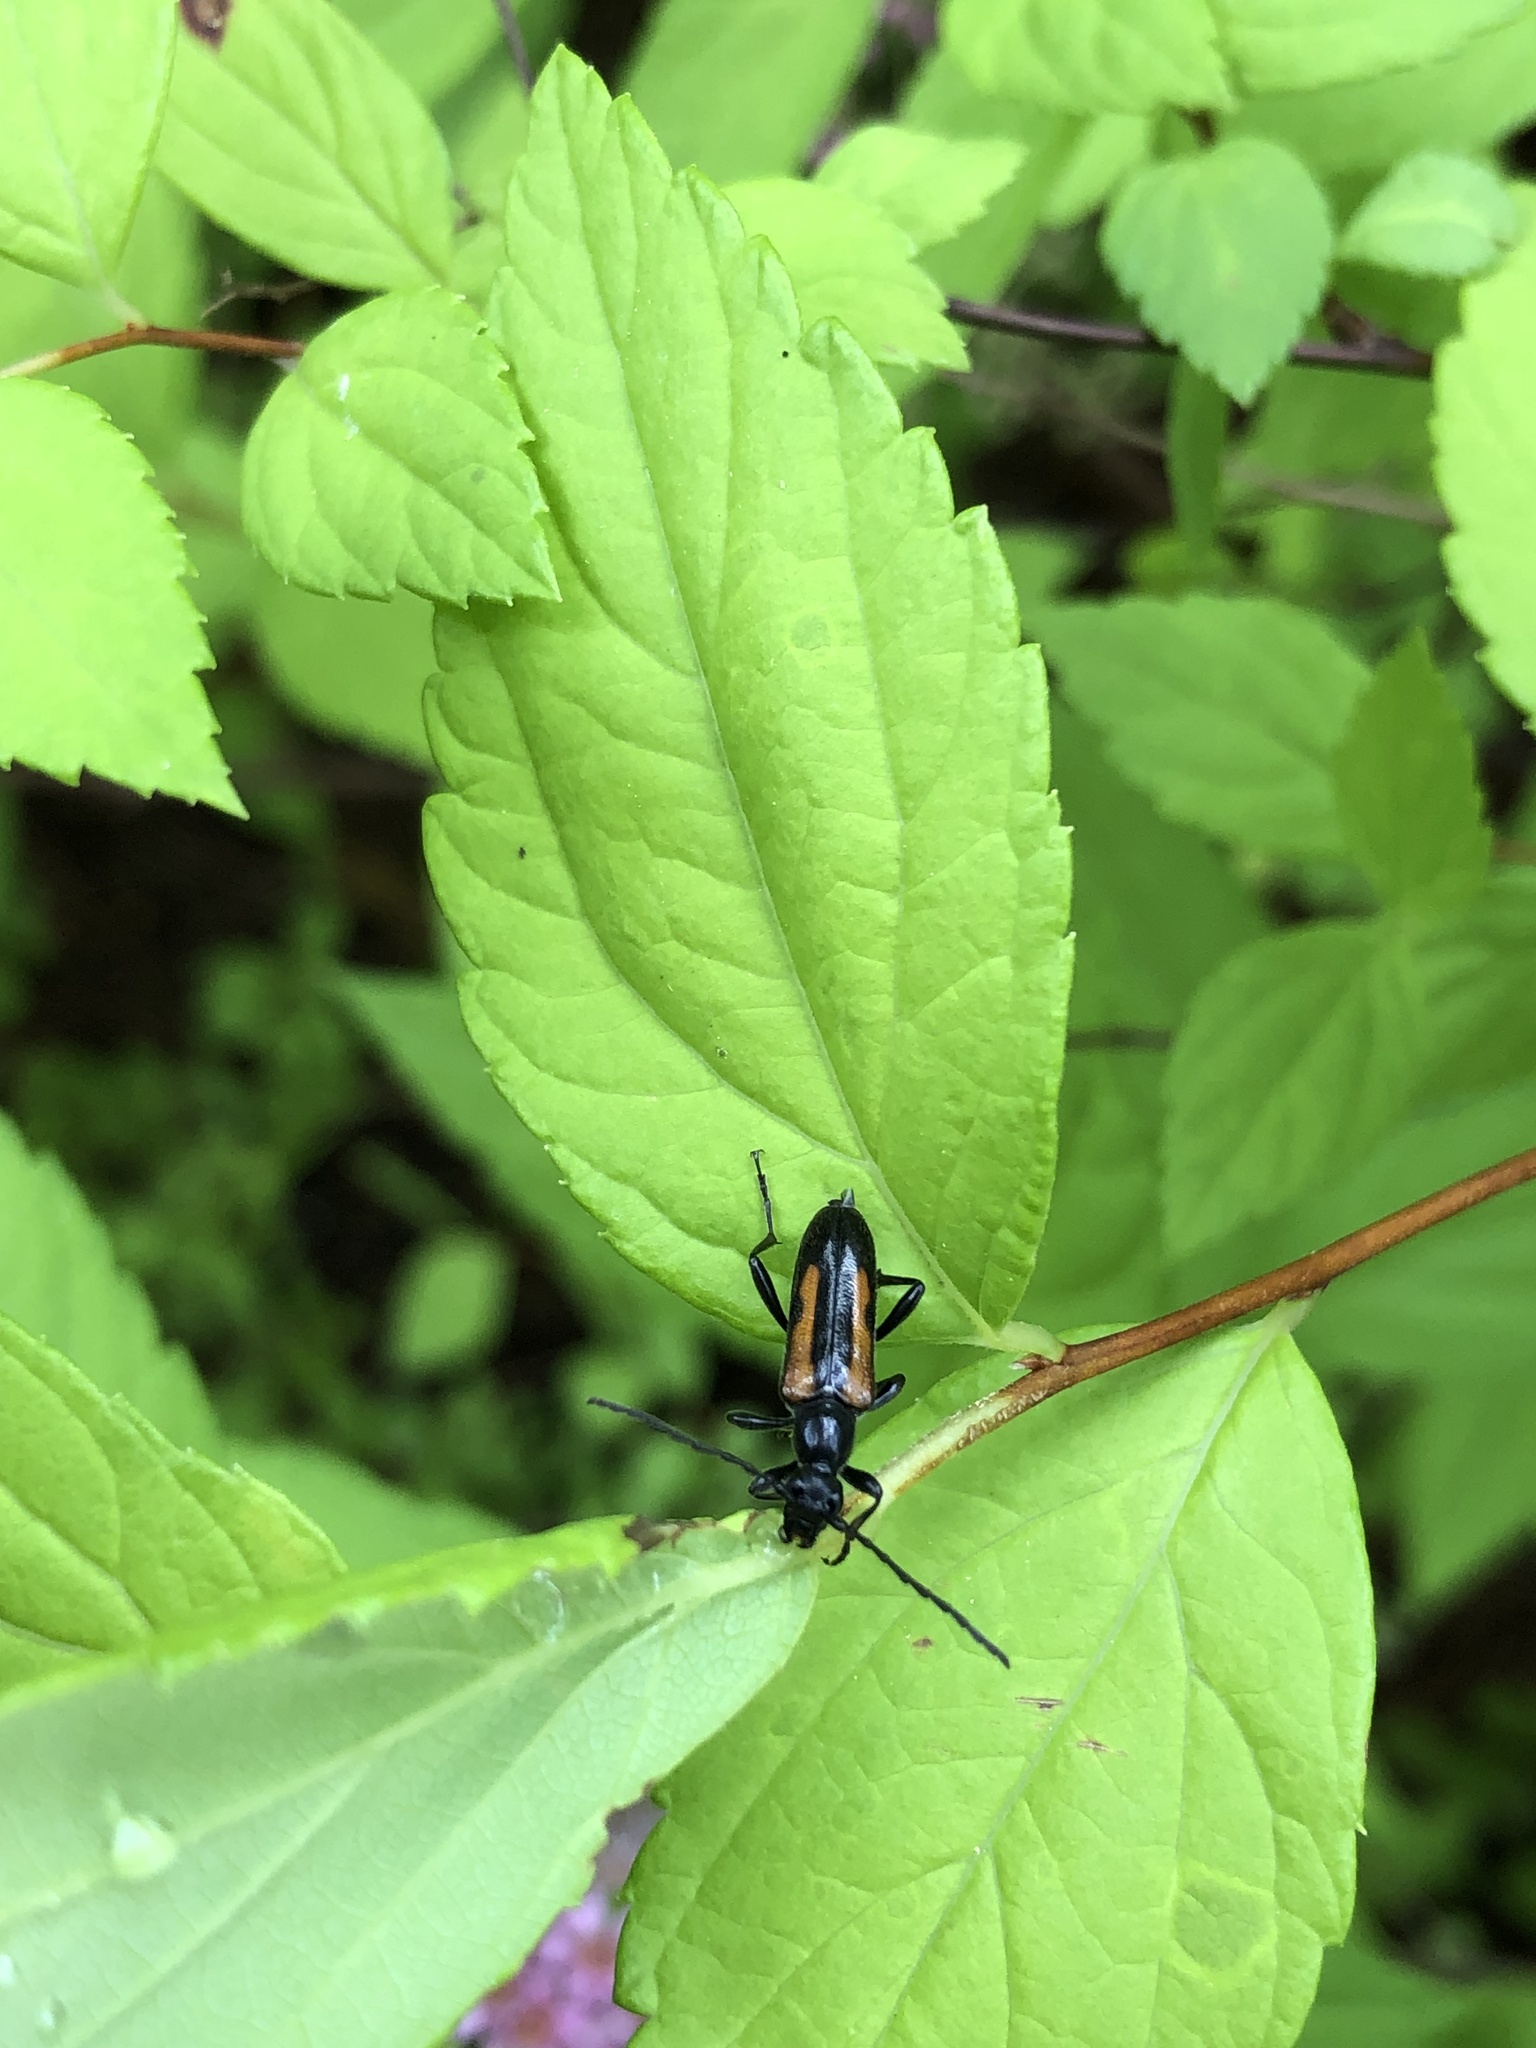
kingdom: Animalia
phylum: Arthropoda
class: Insecta
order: Coleoptera
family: Cerambycidae
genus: Strangalepta
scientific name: Strangalepta abbreviata
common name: Strangalepta flower longhorn beetle
